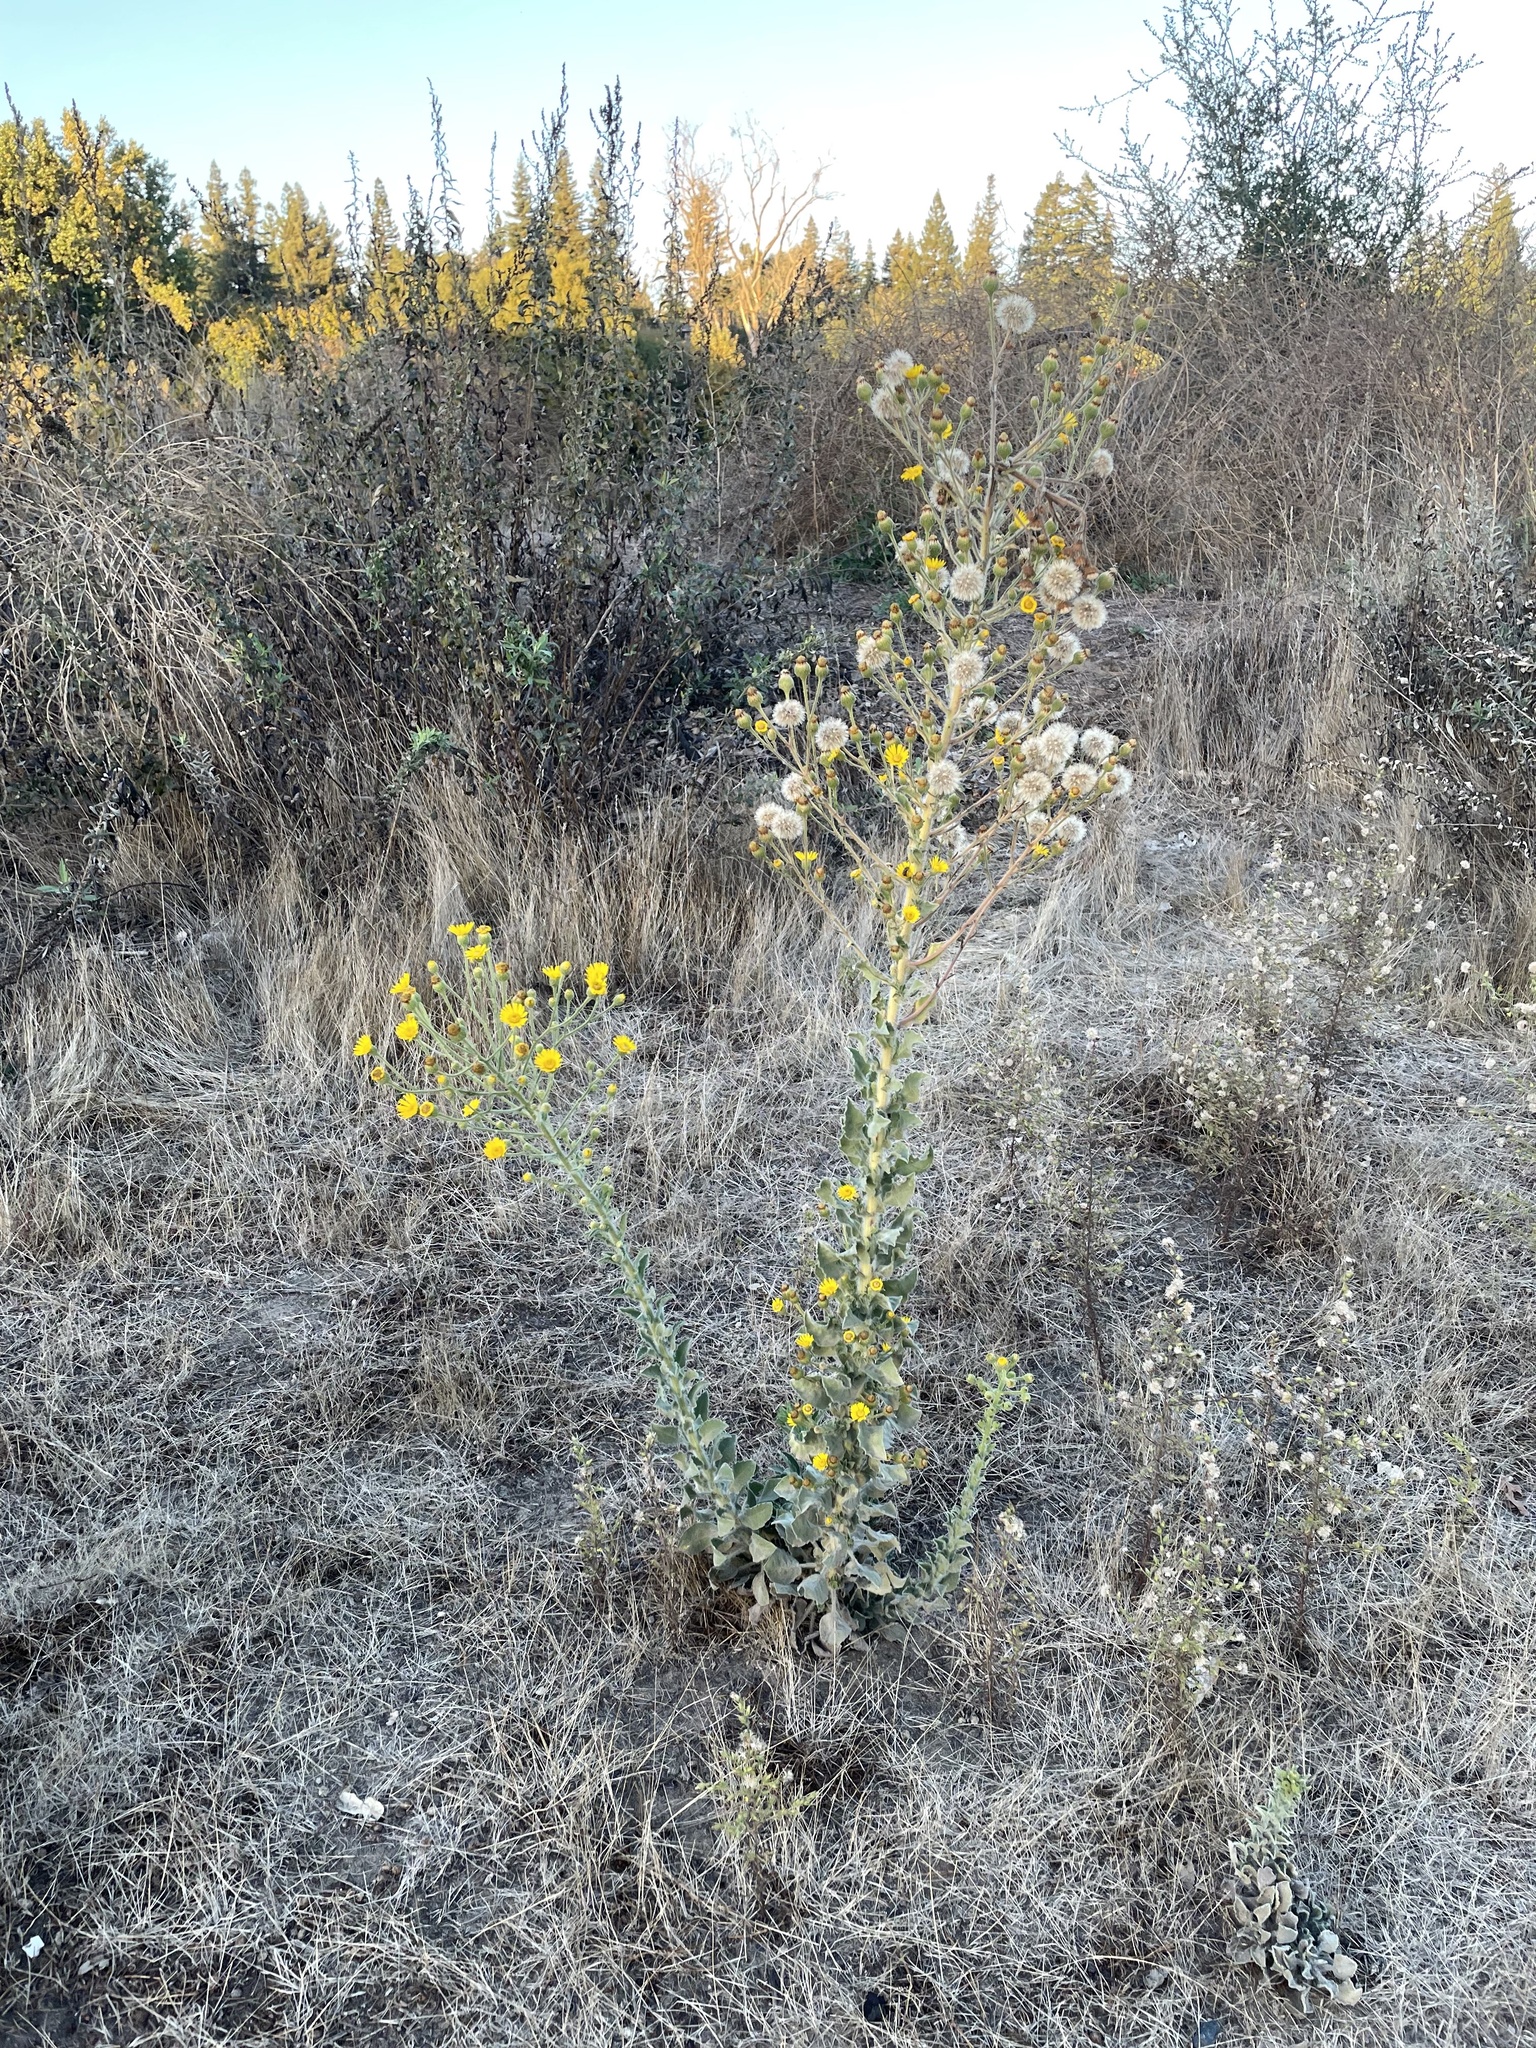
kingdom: Plantae
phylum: Tracheophyta
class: Magnoliopsida
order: Asterales
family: Asteraceae
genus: Heterotheca
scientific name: Heterotheca grandiflora
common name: Telegraphweed
